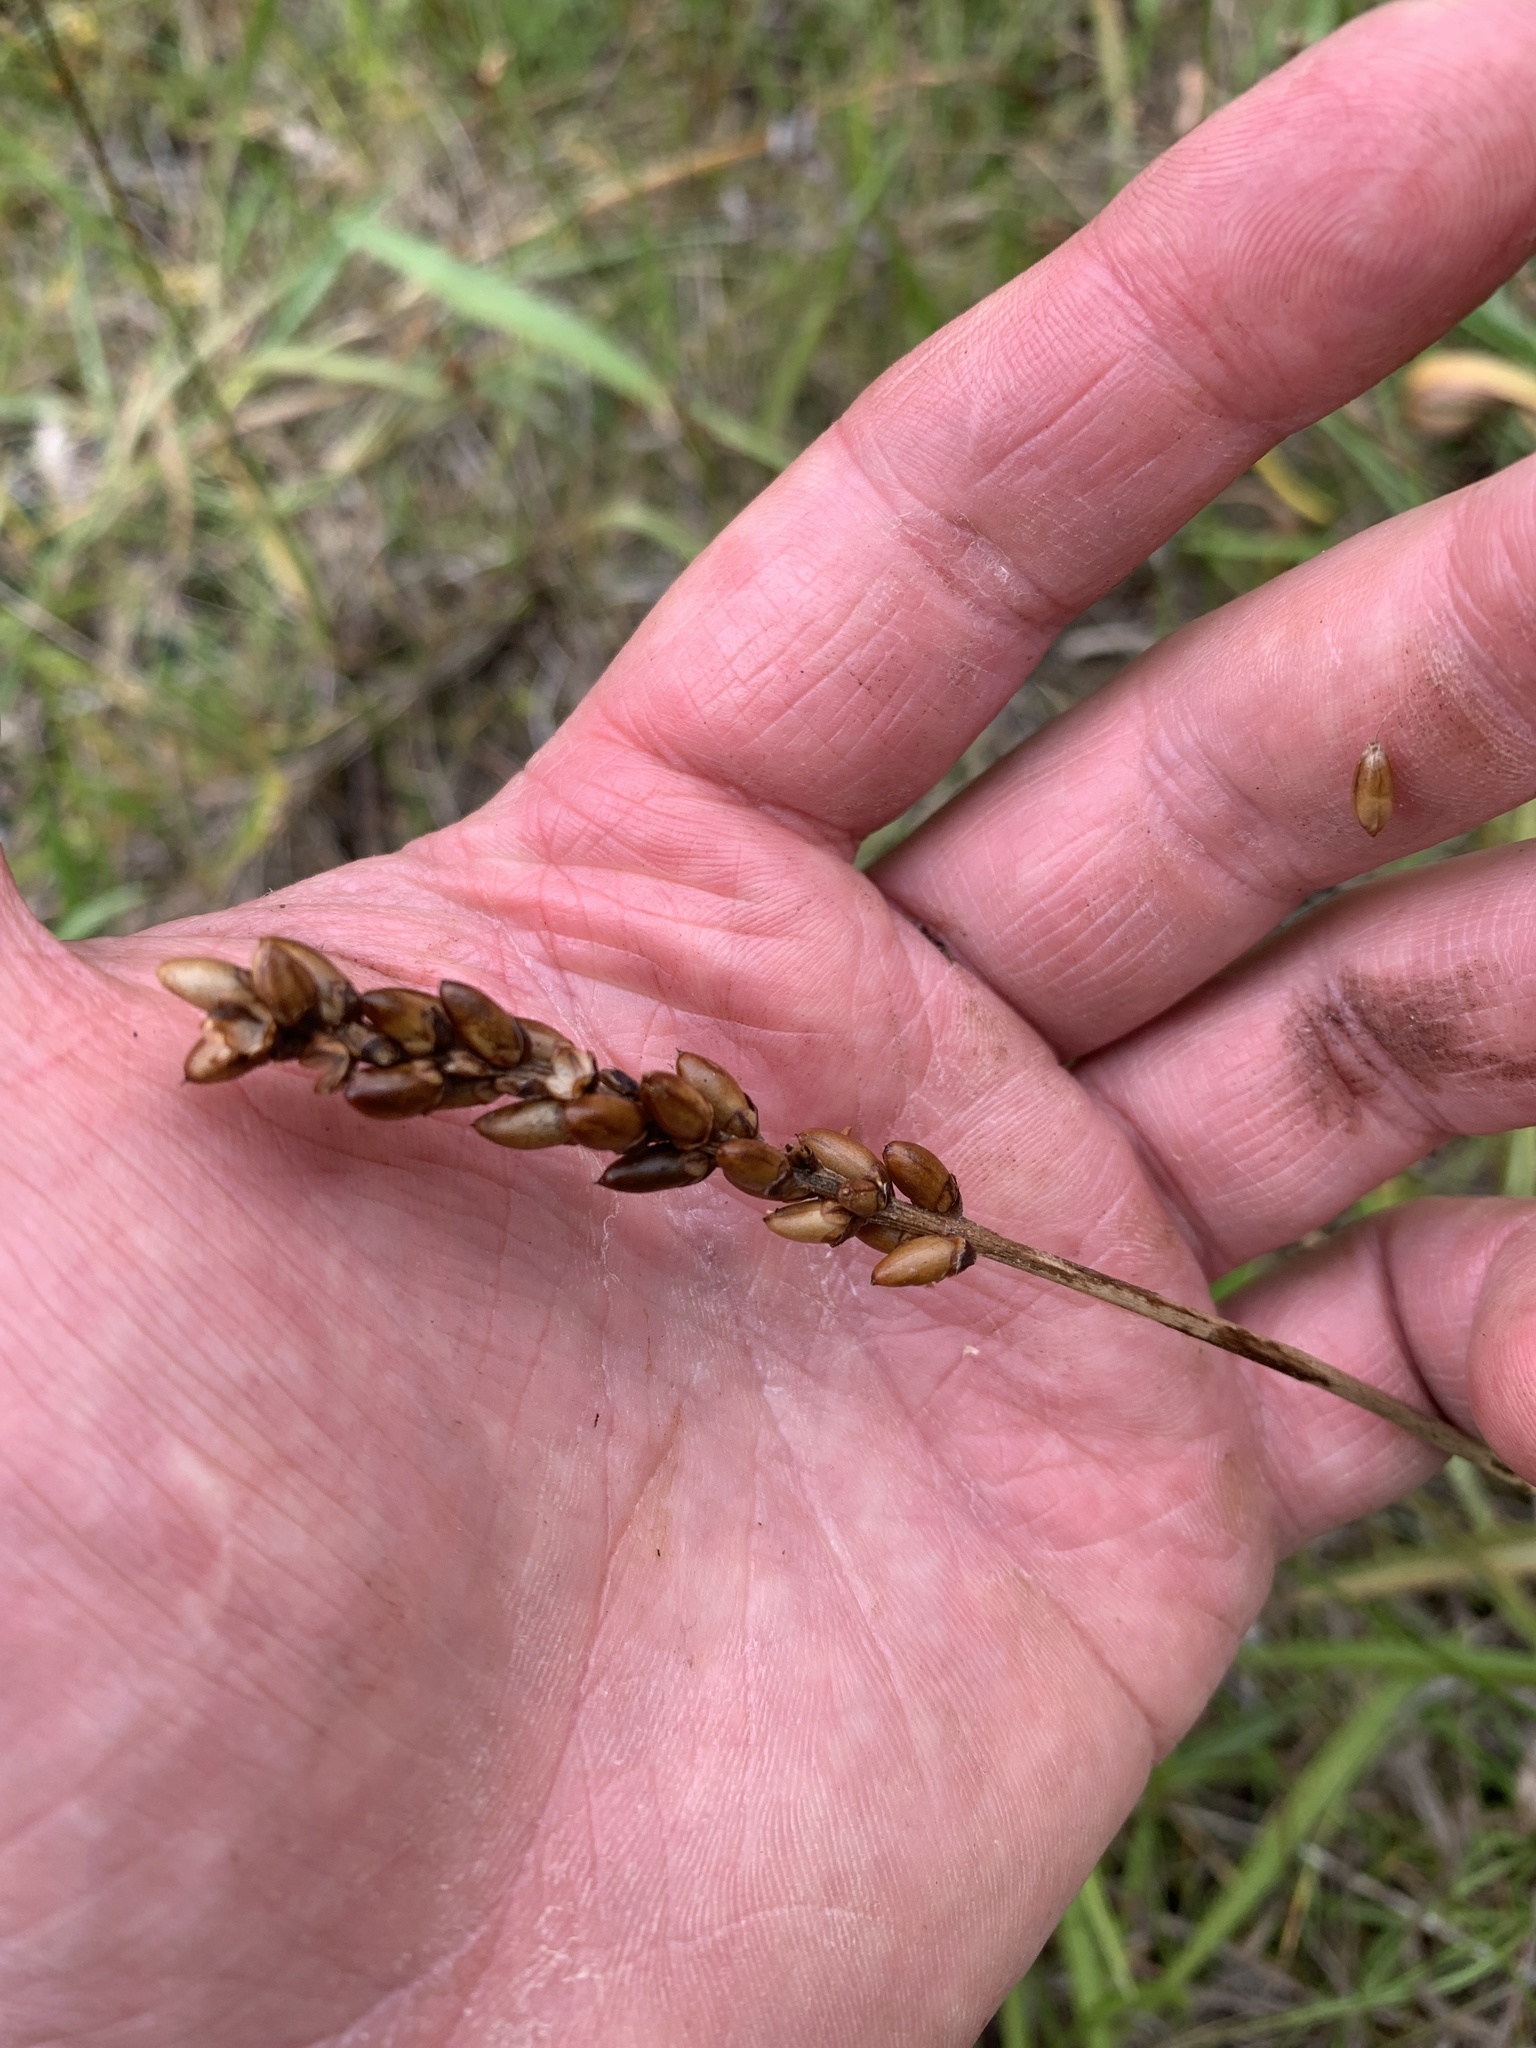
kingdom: Plantae
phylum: Tracheophyta
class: Magnoliopsida
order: Lamiales
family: Plantaginaceae
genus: Plantago
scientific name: Plantago macrocarpa
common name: Alaska plantain
